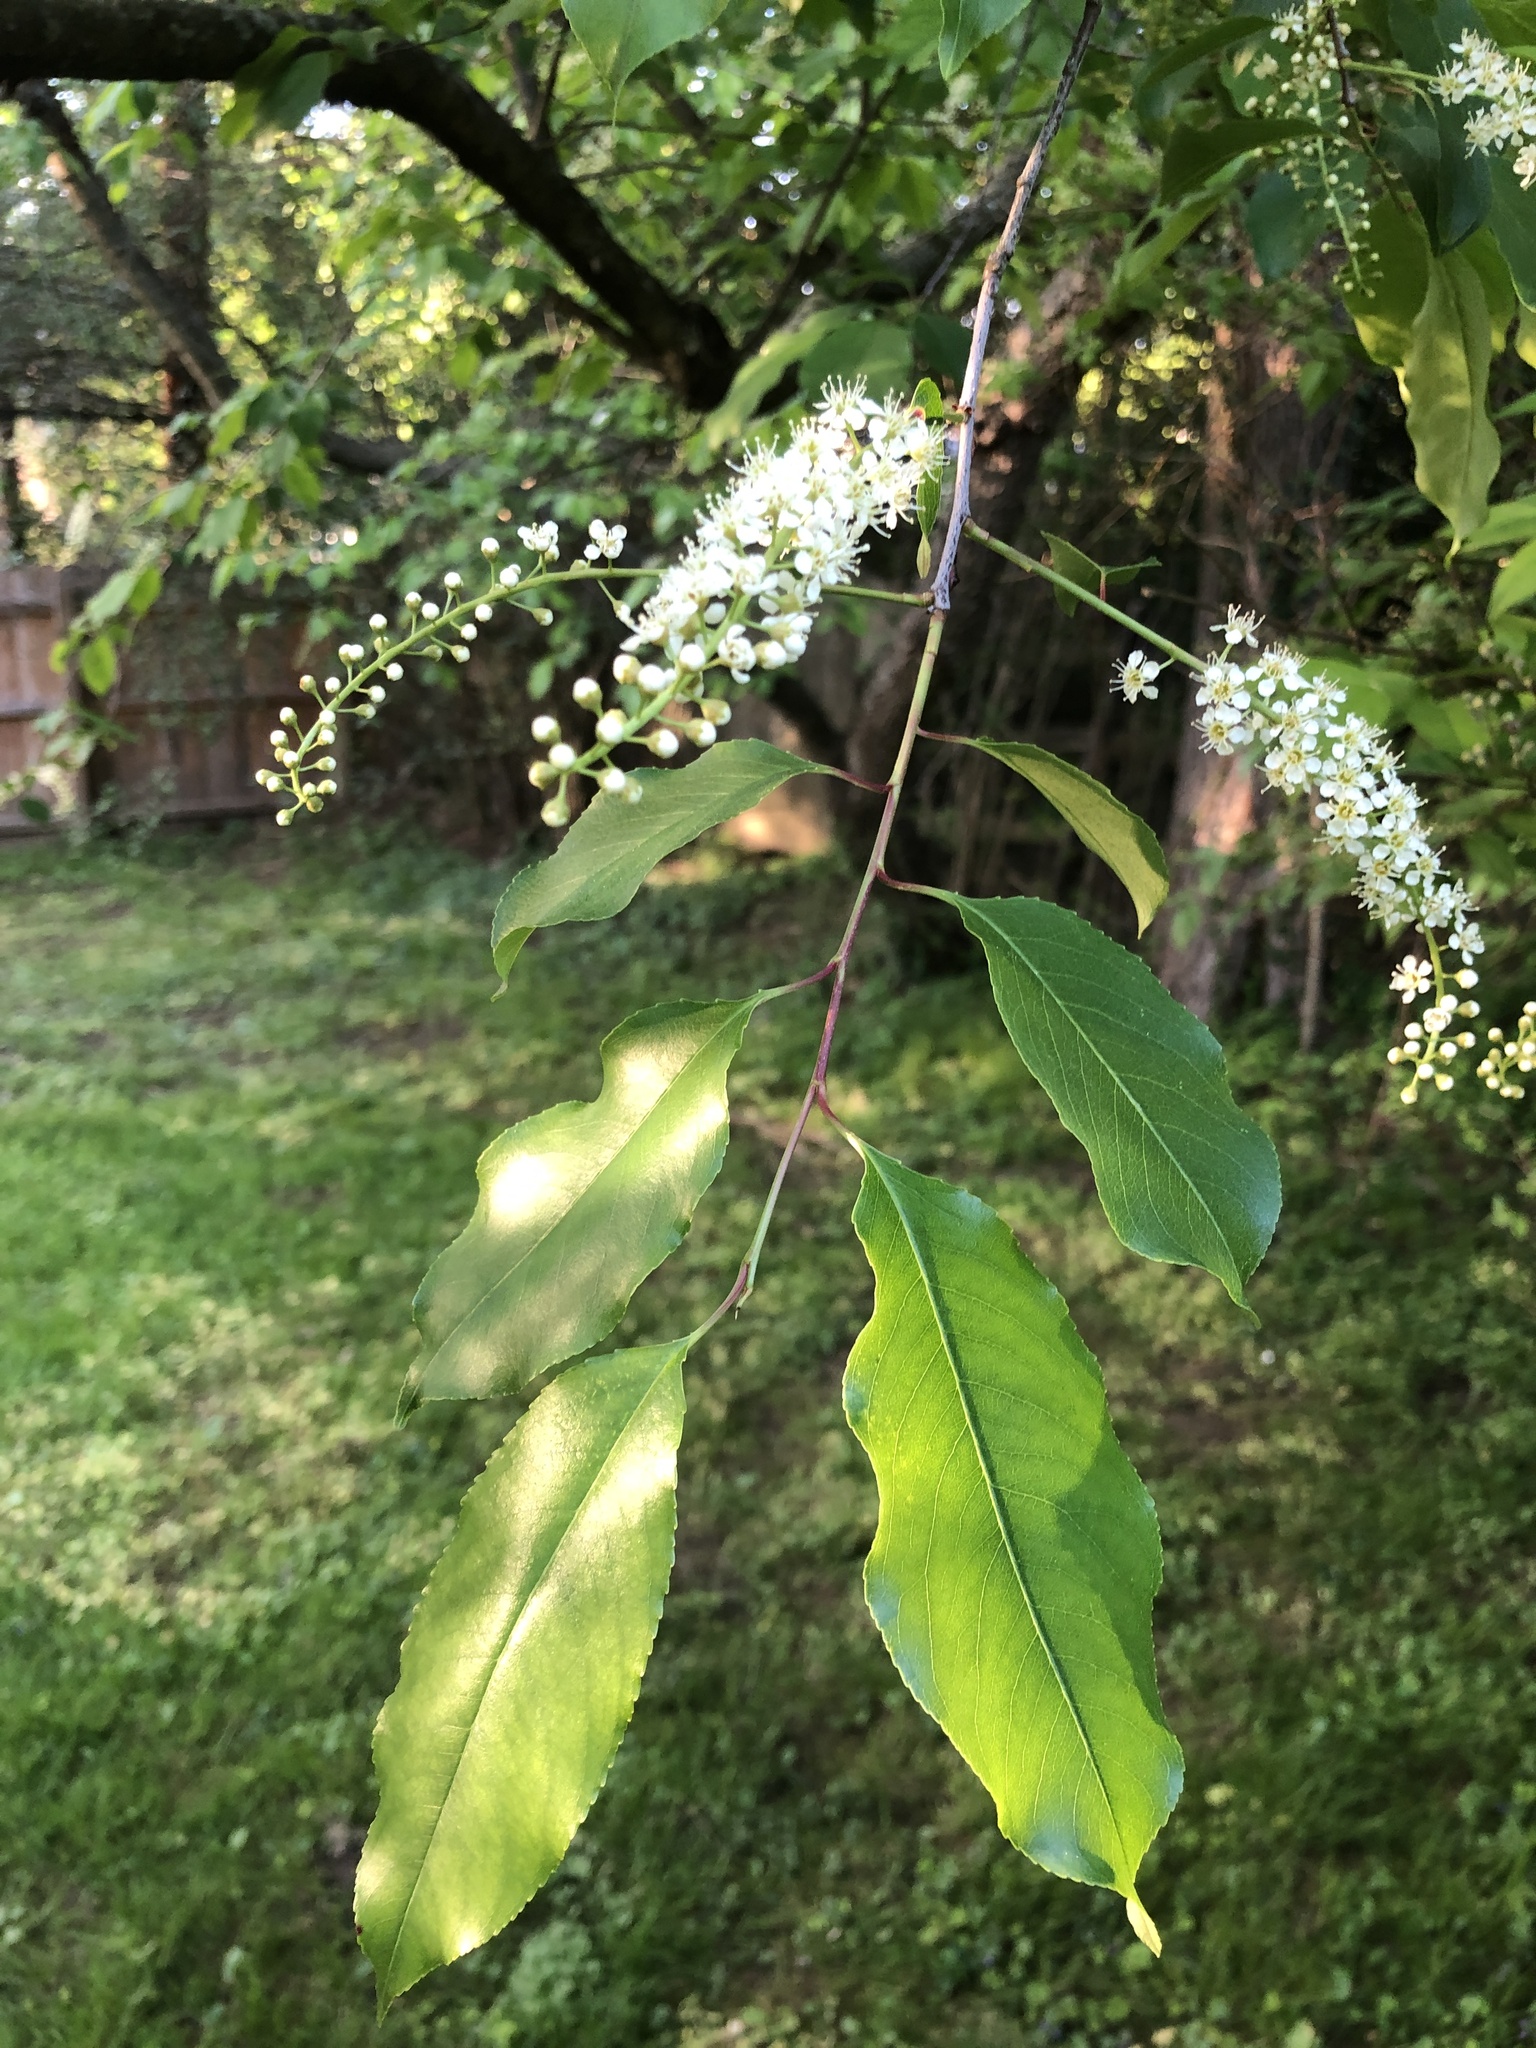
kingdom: Plantae
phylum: Tracheophyta
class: Magnoliopsida
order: Rosales
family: Rosaceae
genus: Prunus
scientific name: Prunus serotina
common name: Black cherry
